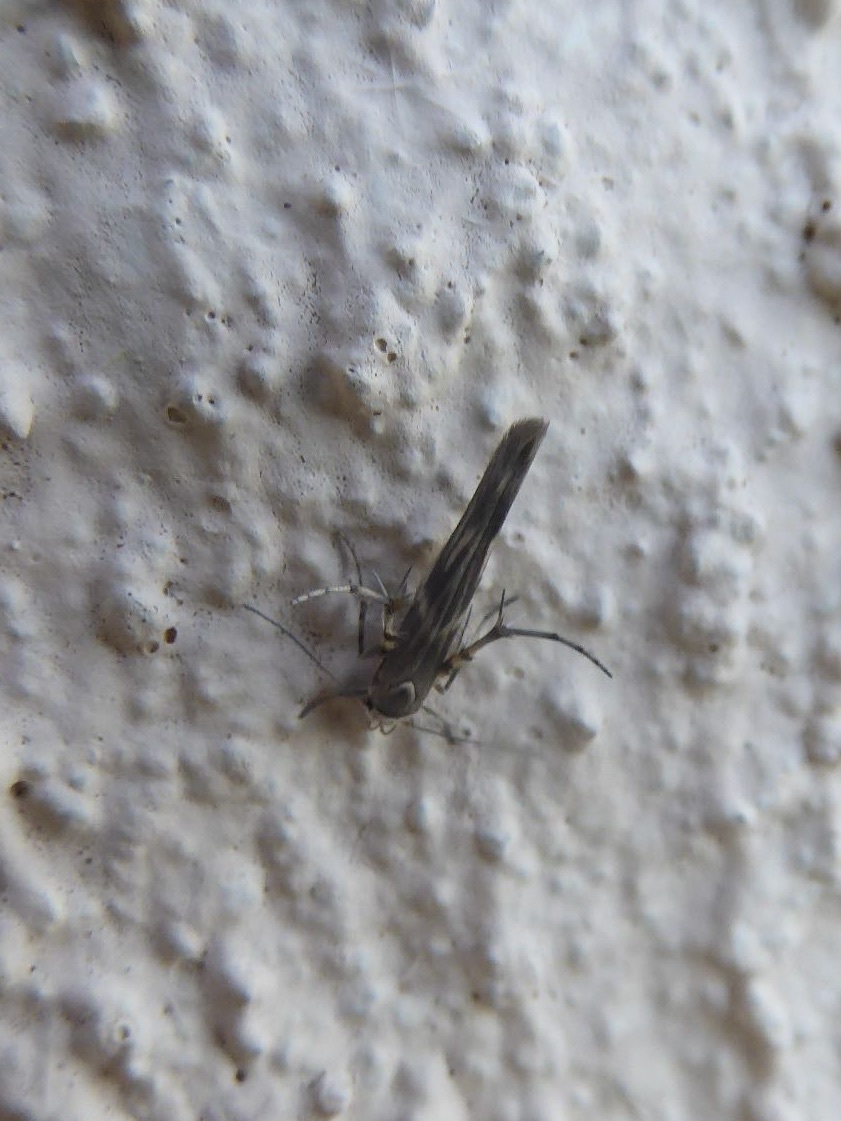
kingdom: Animalia
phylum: Arthropoda
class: Insecta
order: Lepidoptera
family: Gelechiidae
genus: Palumbina
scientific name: Palumbina guerinii
